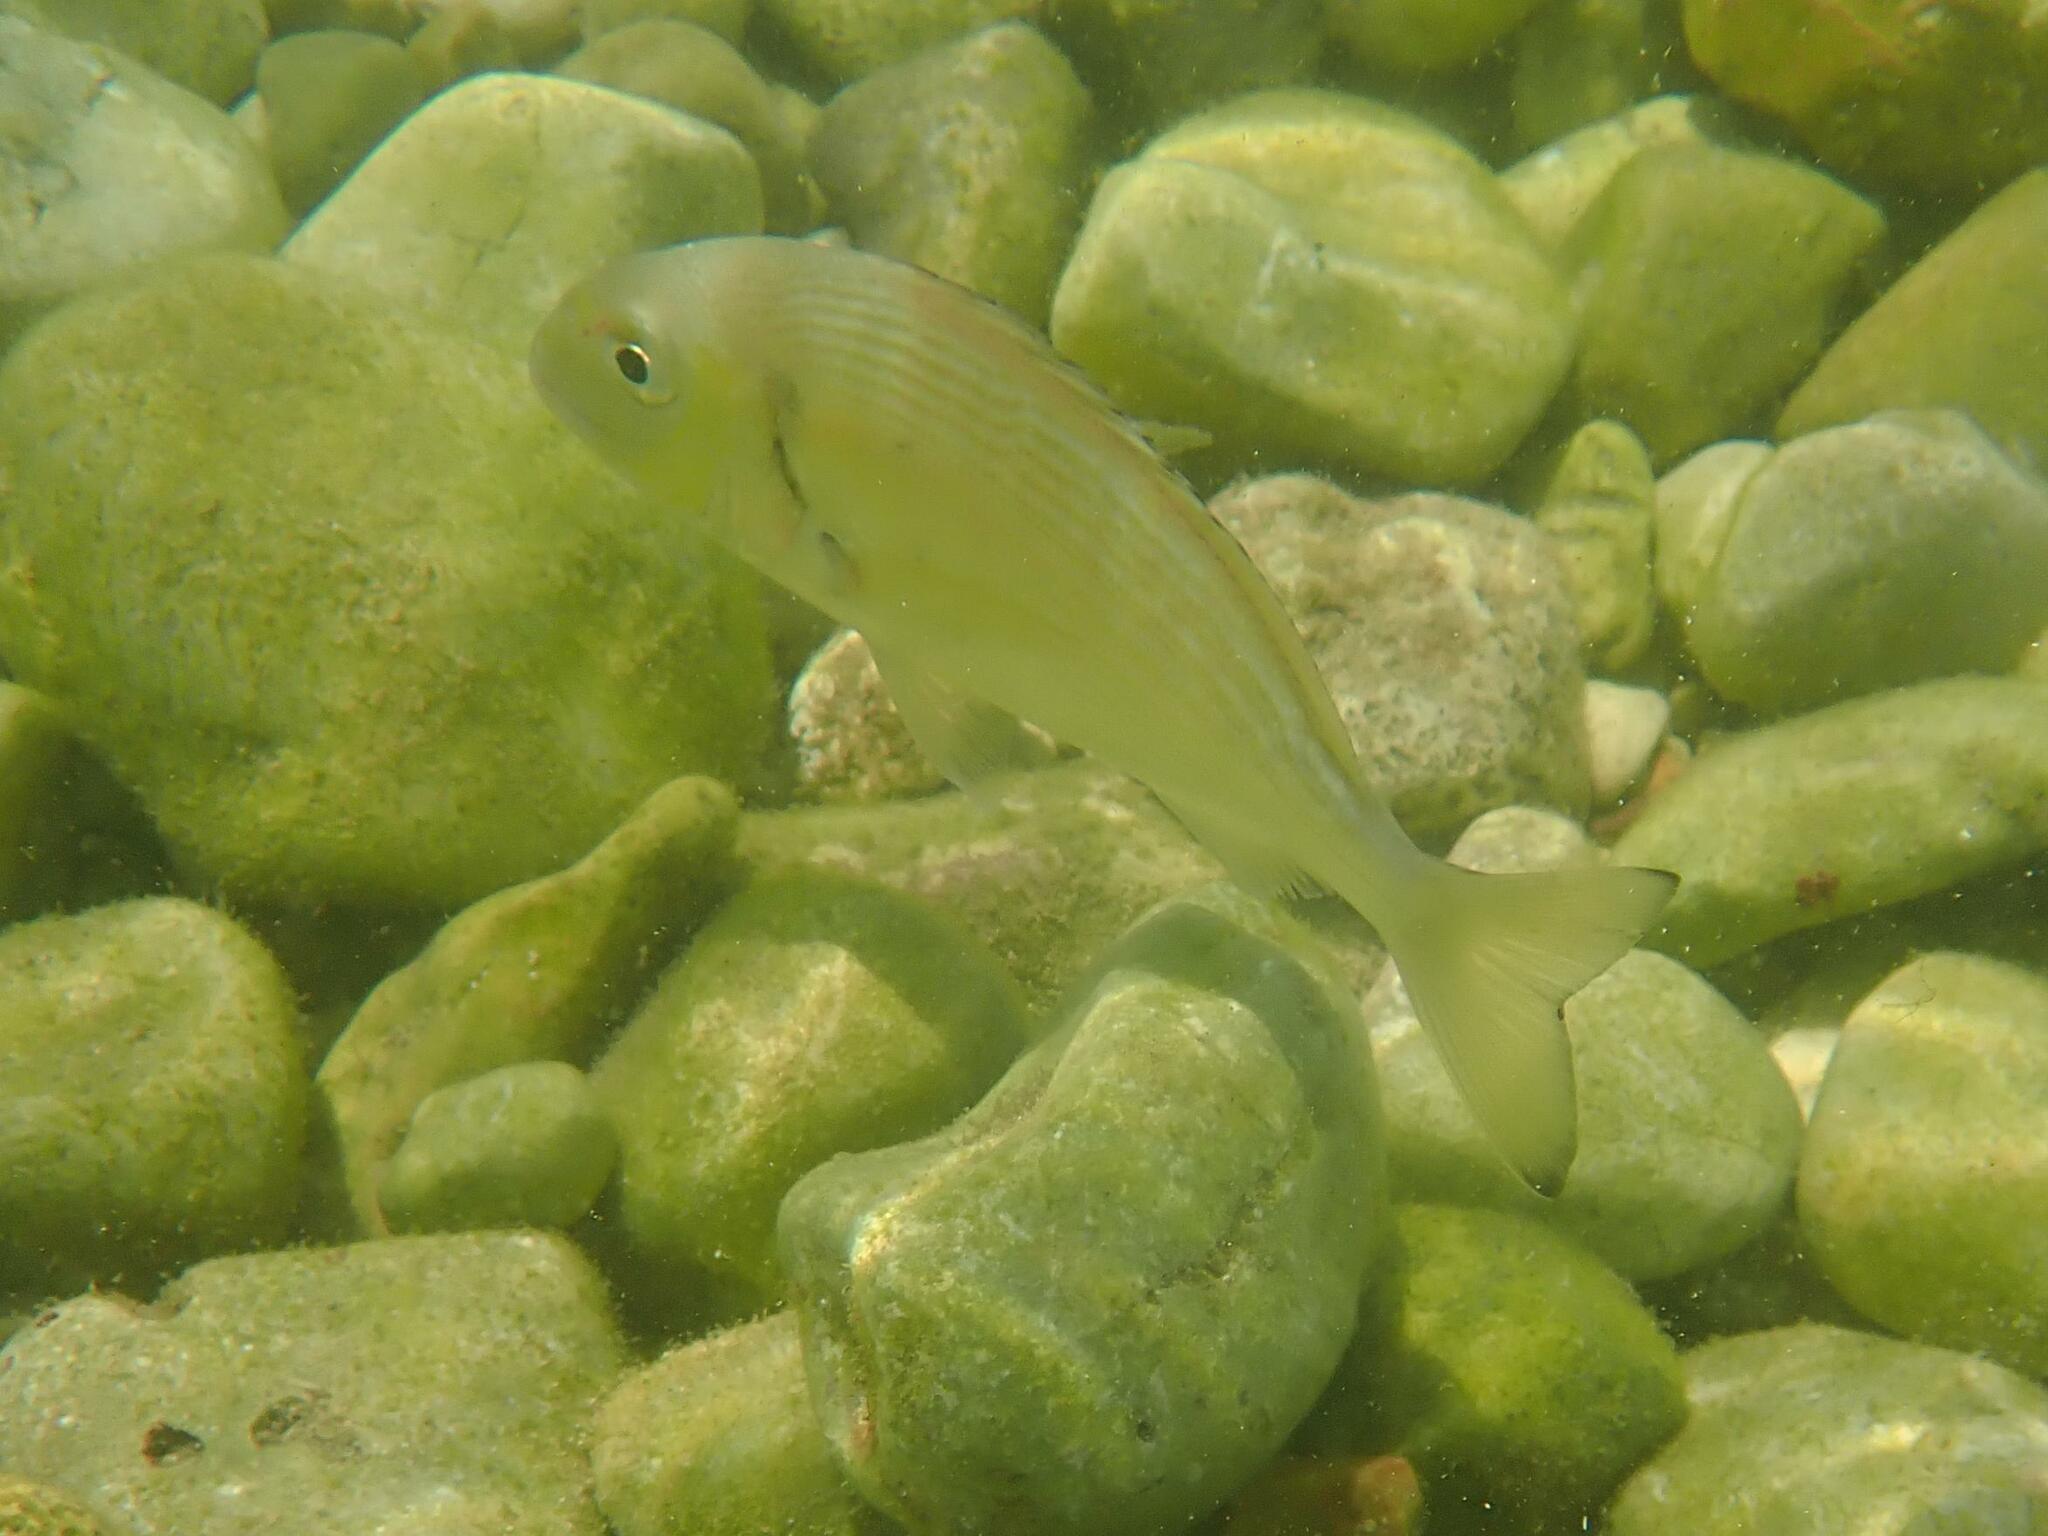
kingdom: Animalia
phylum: Chordata
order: Perciformes
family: Sparidae
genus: Sparus
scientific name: Sparus aurata
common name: Gilthead
